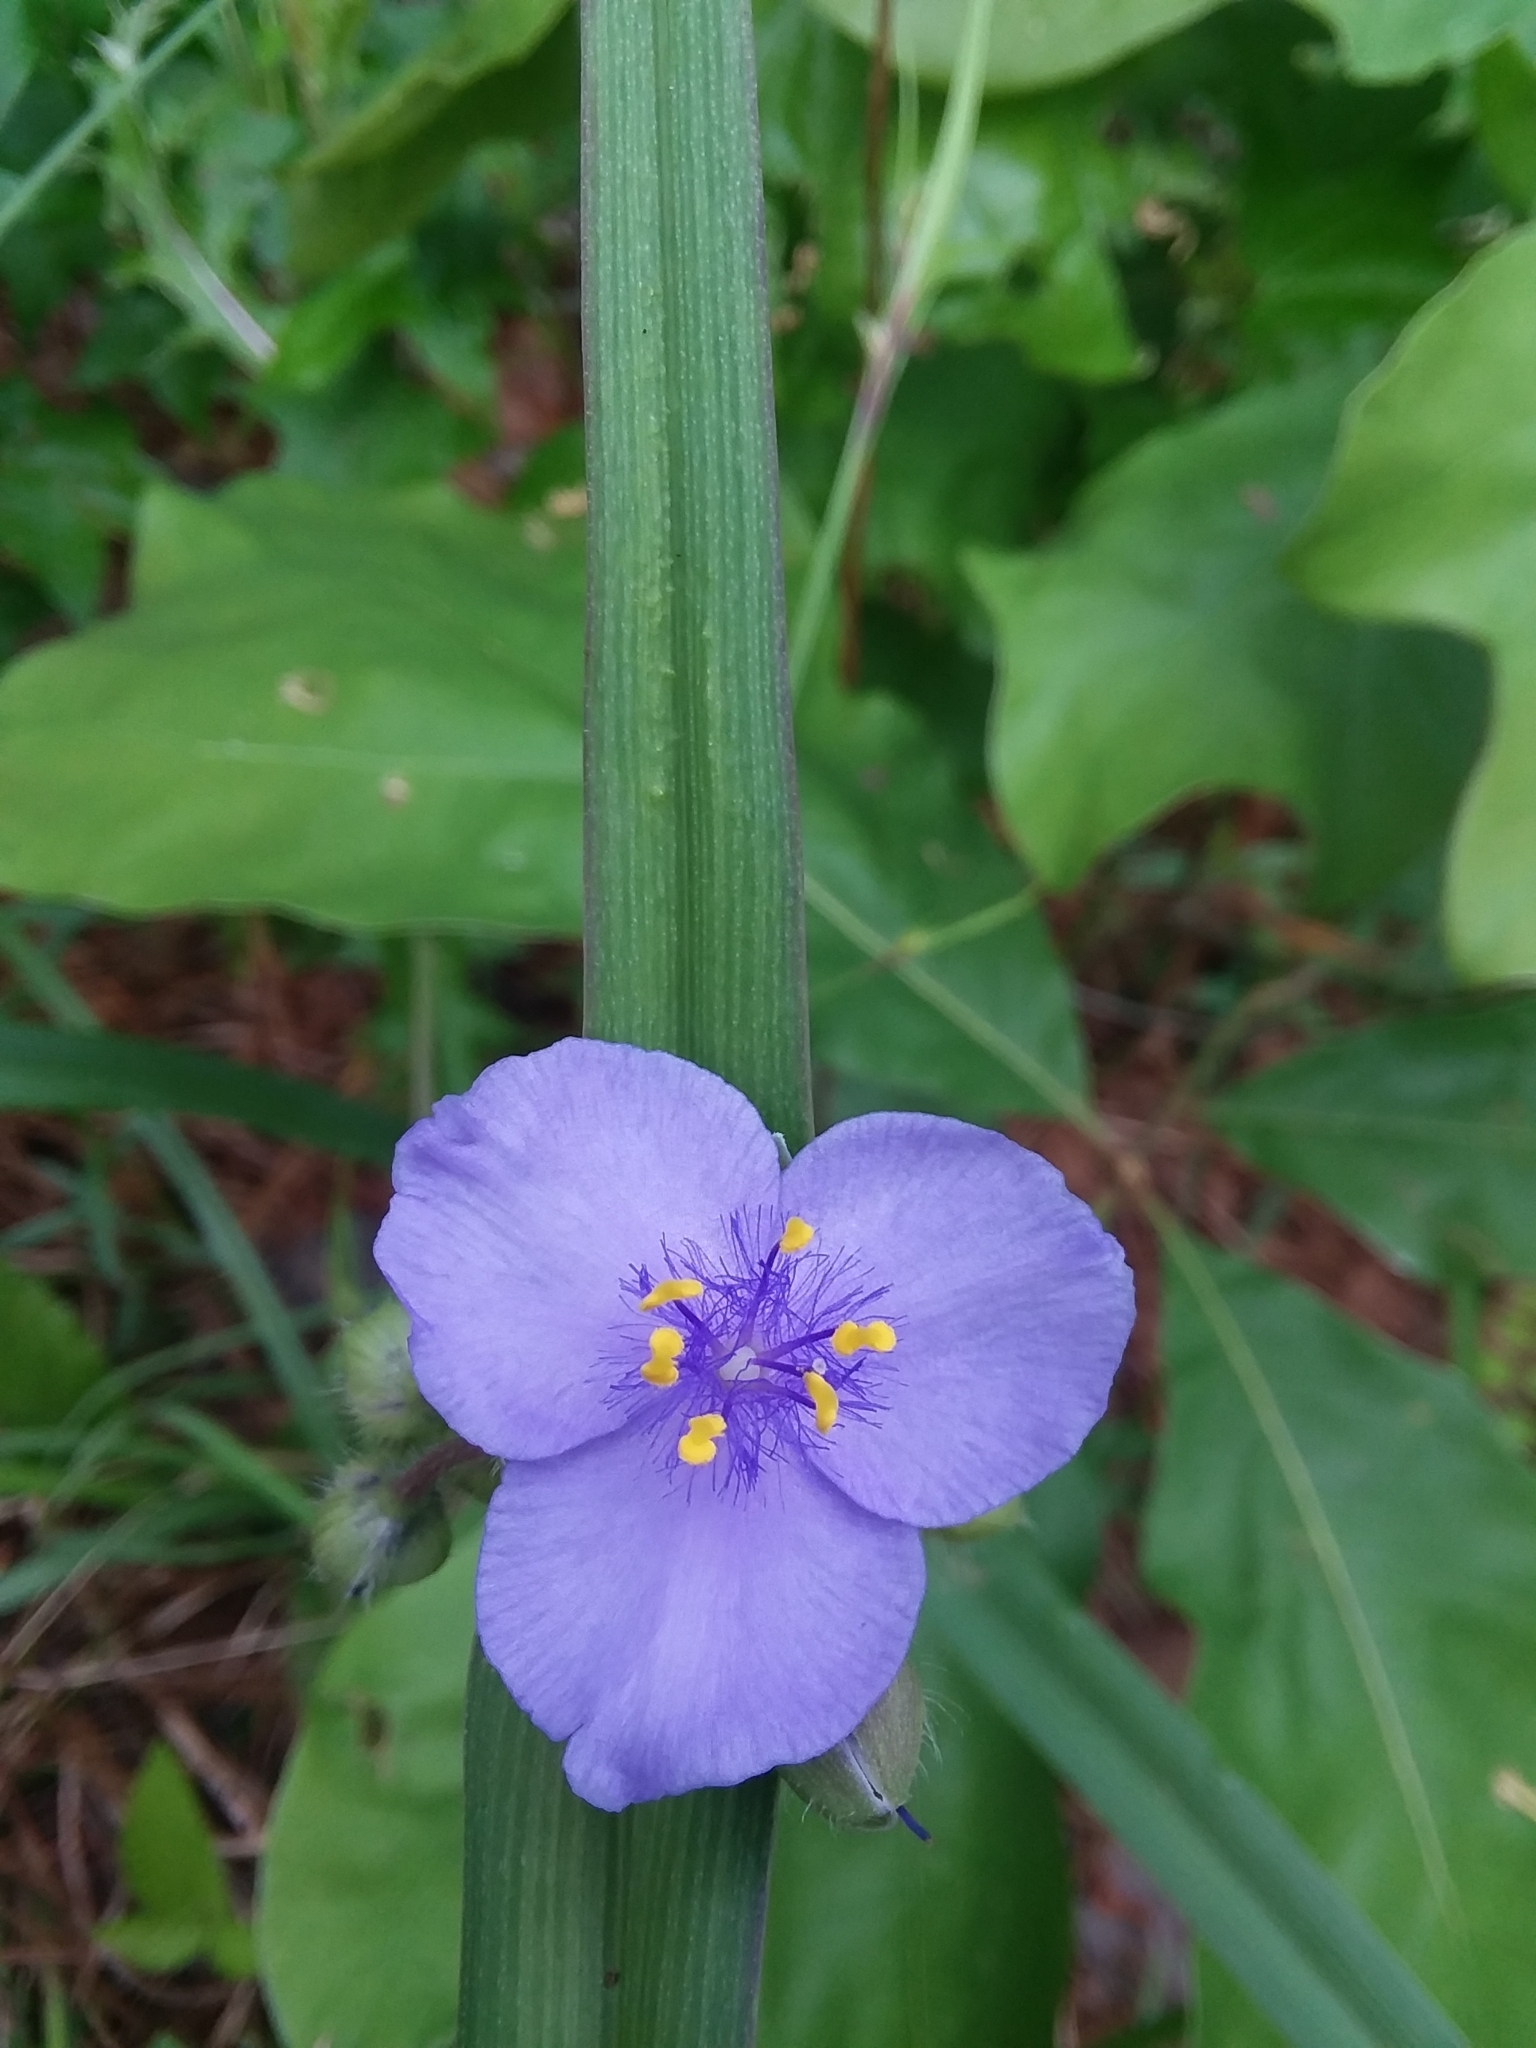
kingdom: Plantae
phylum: Tracheophyta
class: Liliopsida
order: Commelinales
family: Commelinaceae
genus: Tradescantia
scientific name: Tradescantia virginiana
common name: Spiderwort
